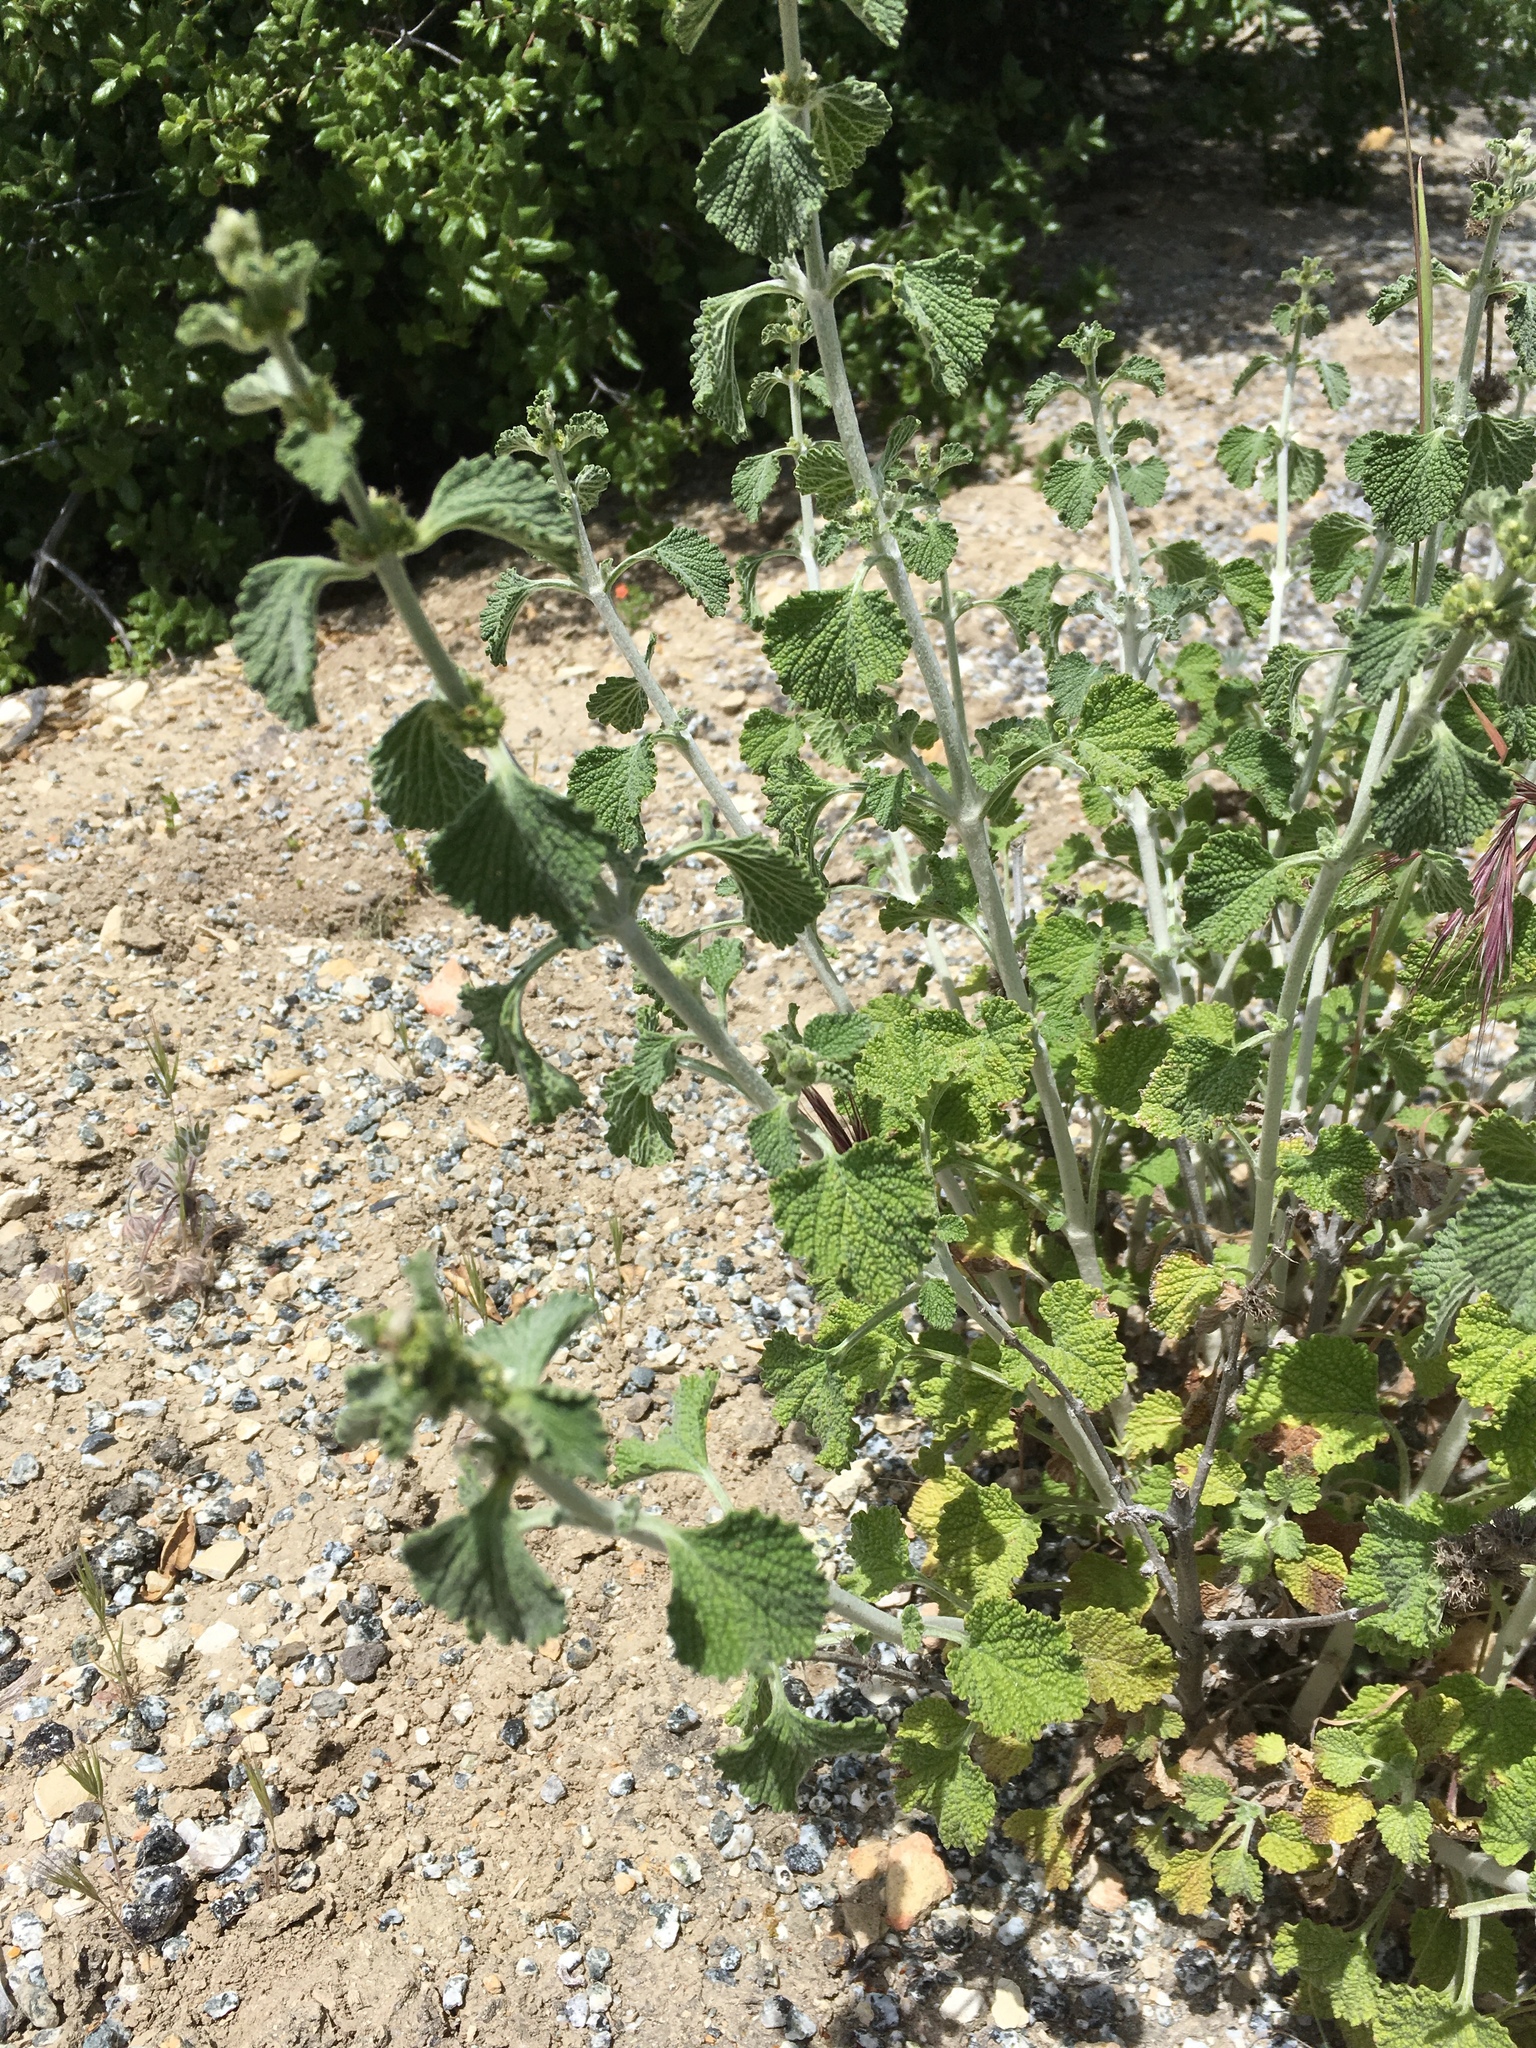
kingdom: Plantae
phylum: Tracheophyta
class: Magnoliopsida
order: Lamiales
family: Lamiaceae
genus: Marrubium
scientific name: Marrubium vulgare
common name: Horehound
